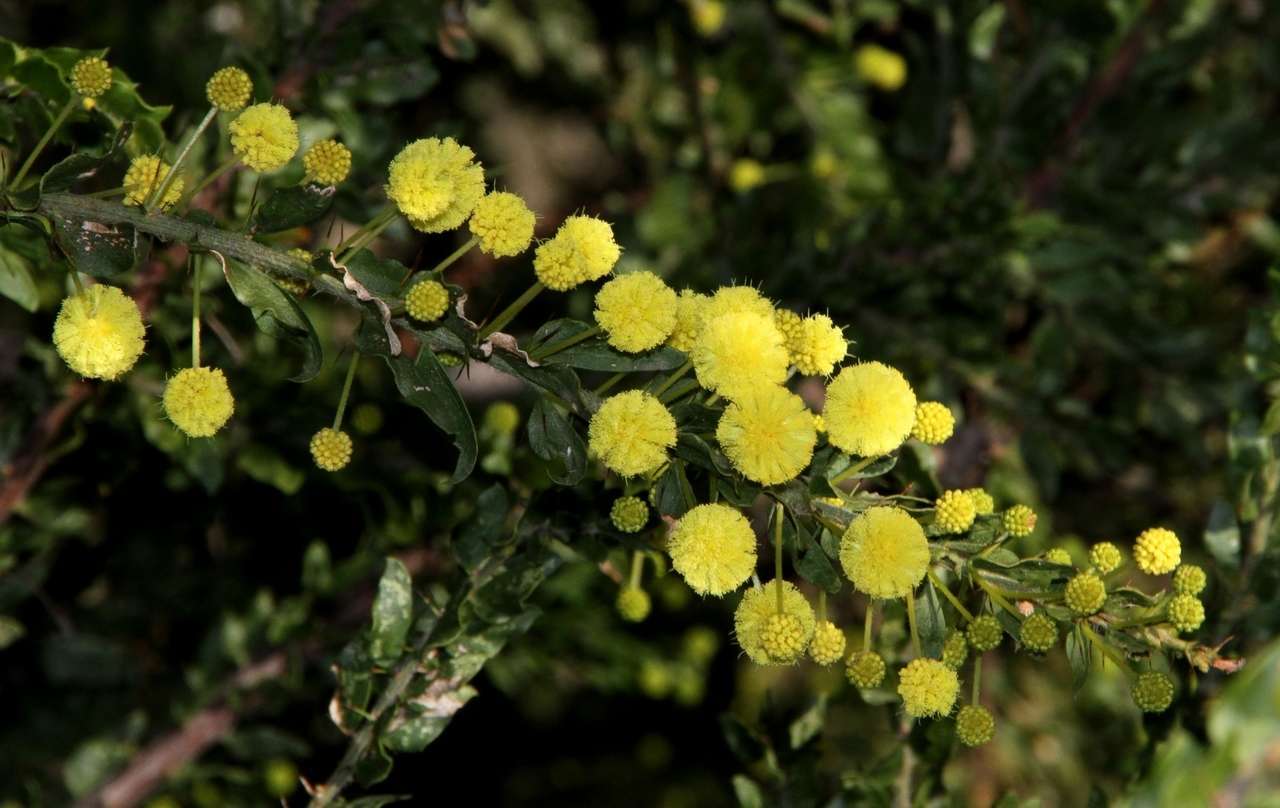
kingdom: Plantae
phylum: Tracheophyta
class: Magnoliopsida
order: Fabales
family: Fabaceae
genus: Acacia
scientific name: Acacia paradoxa
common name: Paradox acacia
